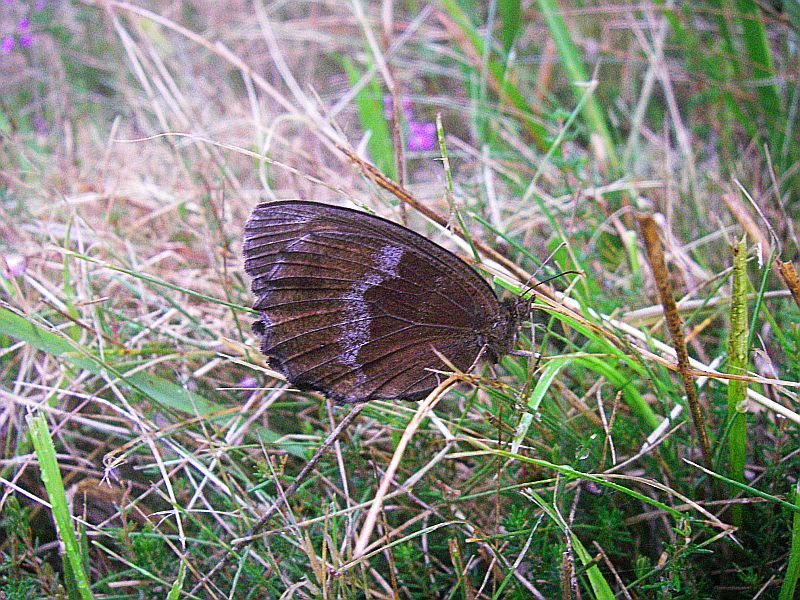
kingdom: Animalia
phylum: Arthropoda
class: Insecta
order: Lepidoptera
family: Nymphalidae
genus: Minois
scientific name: Minois dryas
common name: Dryad
